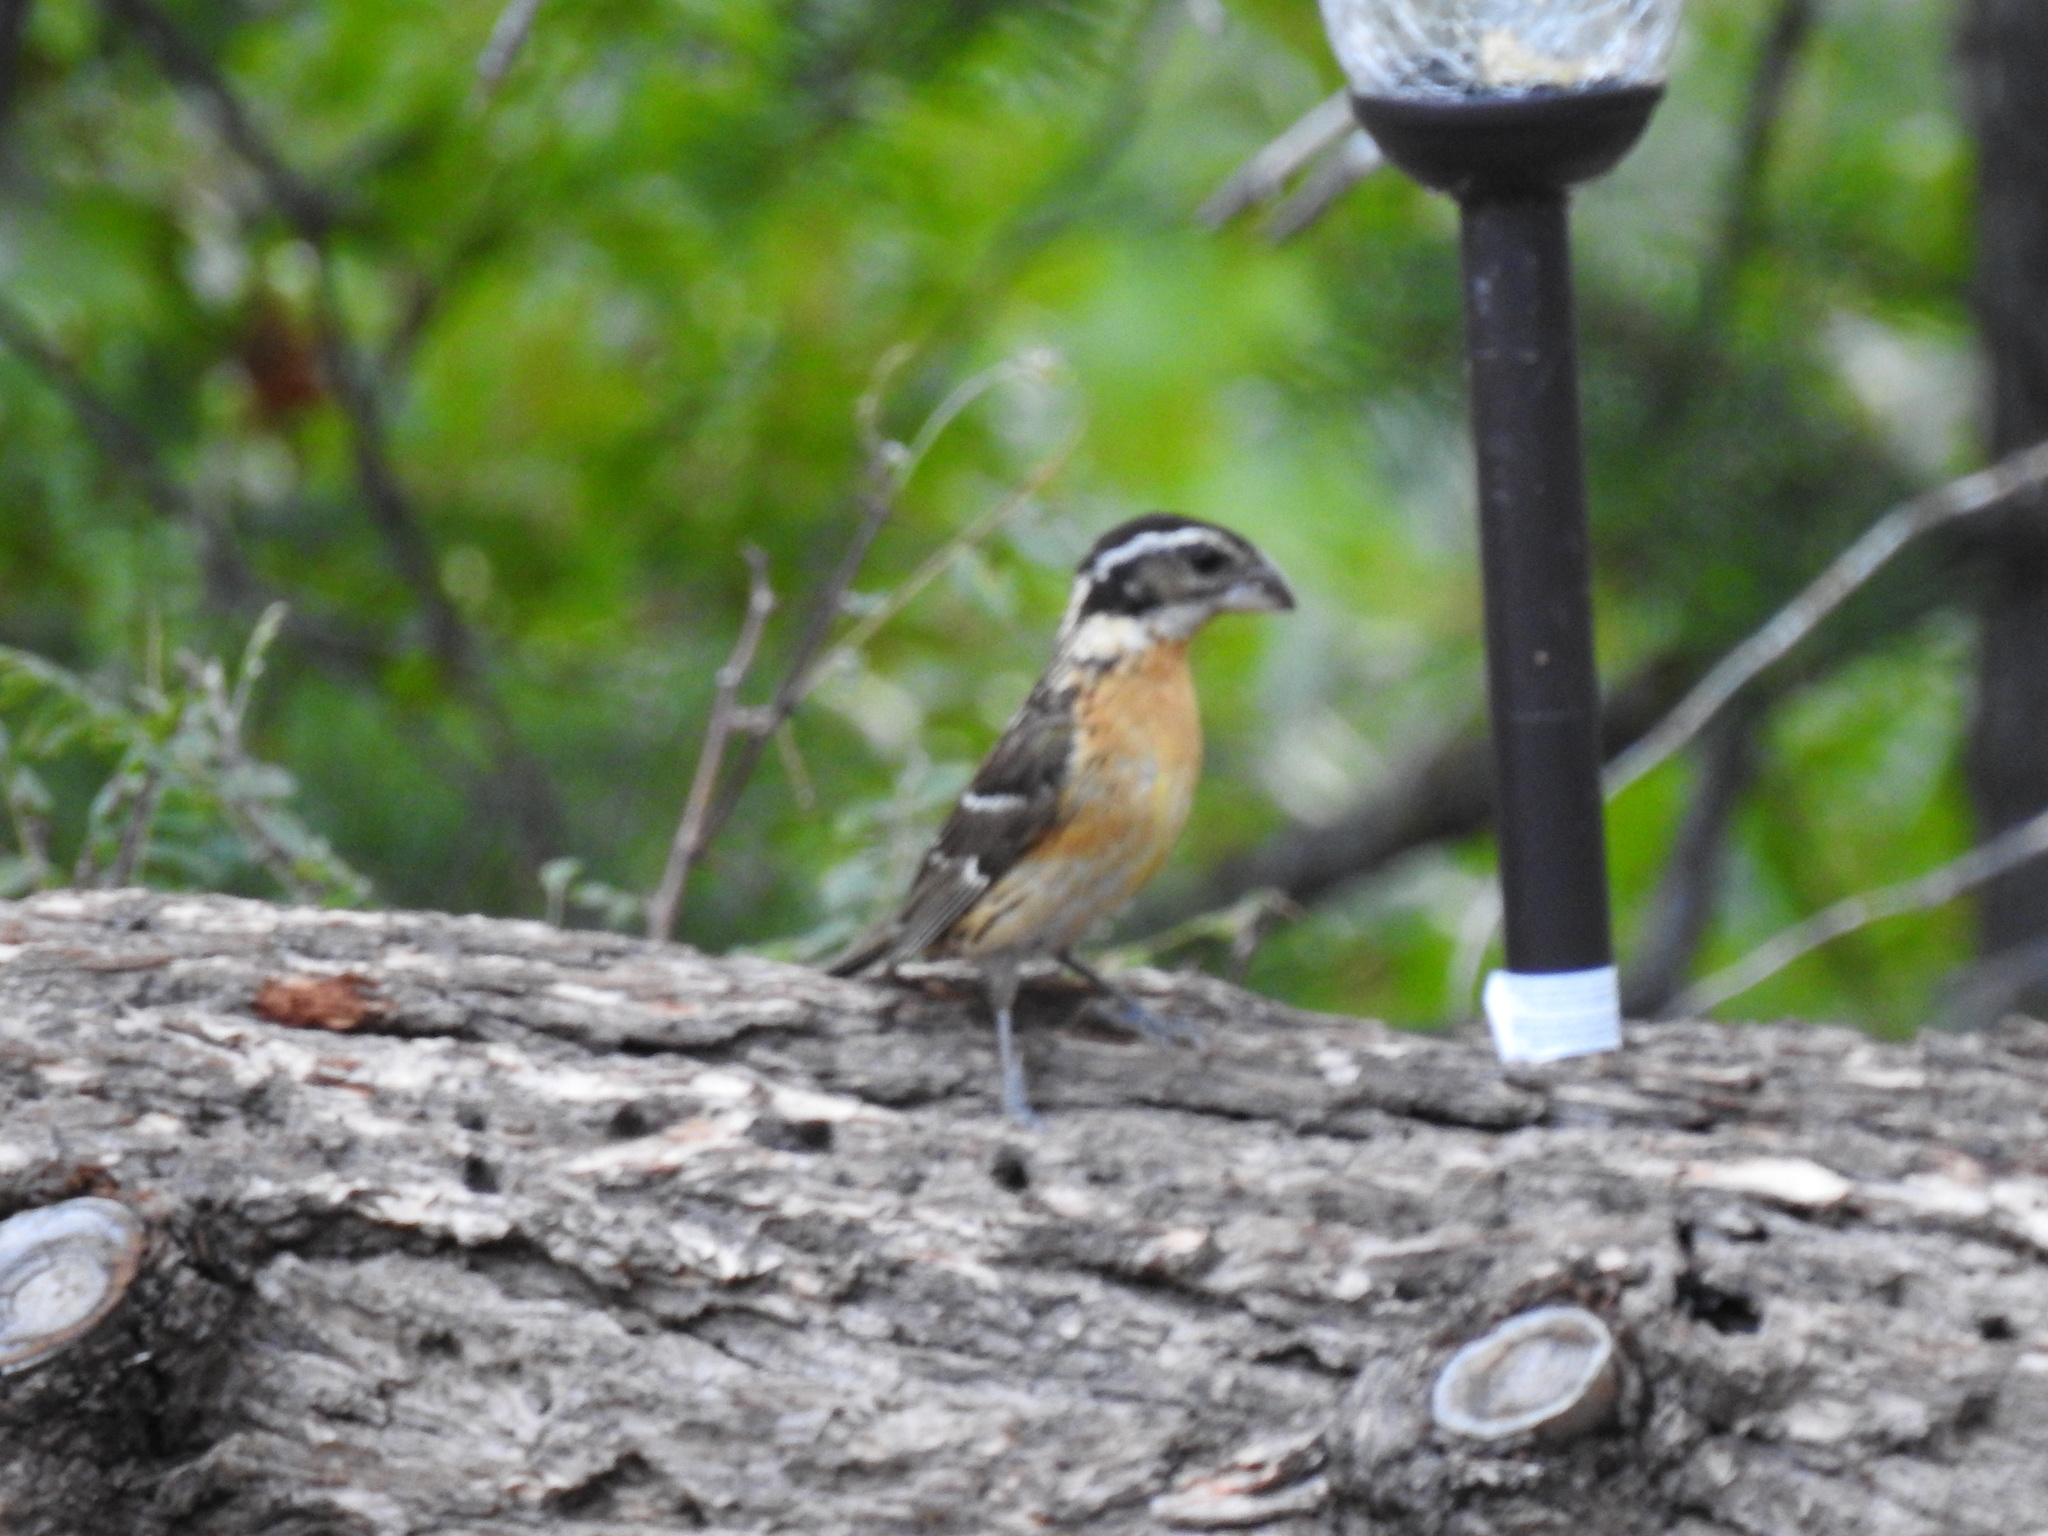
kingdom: Animalia
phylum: Chordata
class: Aves
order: Passeriformes
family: Cardinalidae
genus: Pheucticus
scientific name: Pheucticus melanocephalus
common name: Black-headed grosbeak
